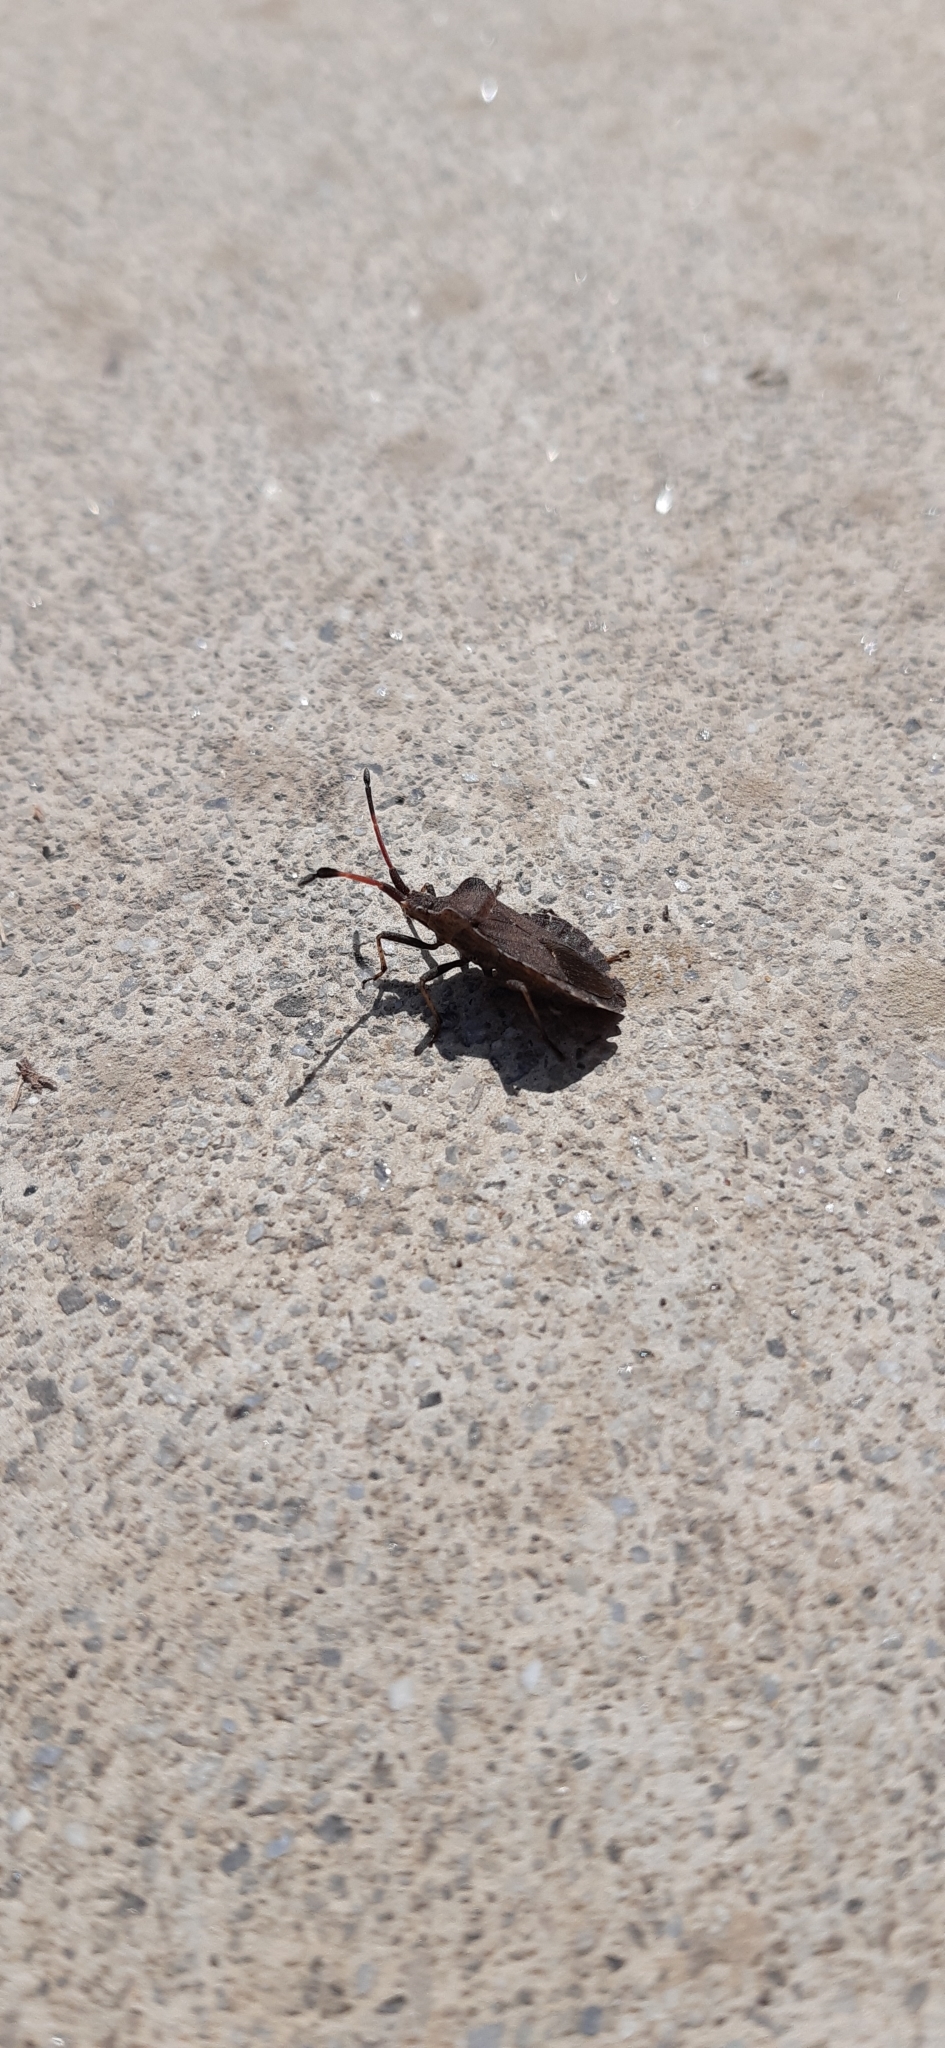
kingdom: Animalia
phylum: Arthropoda
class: Insecta
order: Hemiptera
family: Coreidae
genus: Enoplops
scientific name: Enoplops scapha
